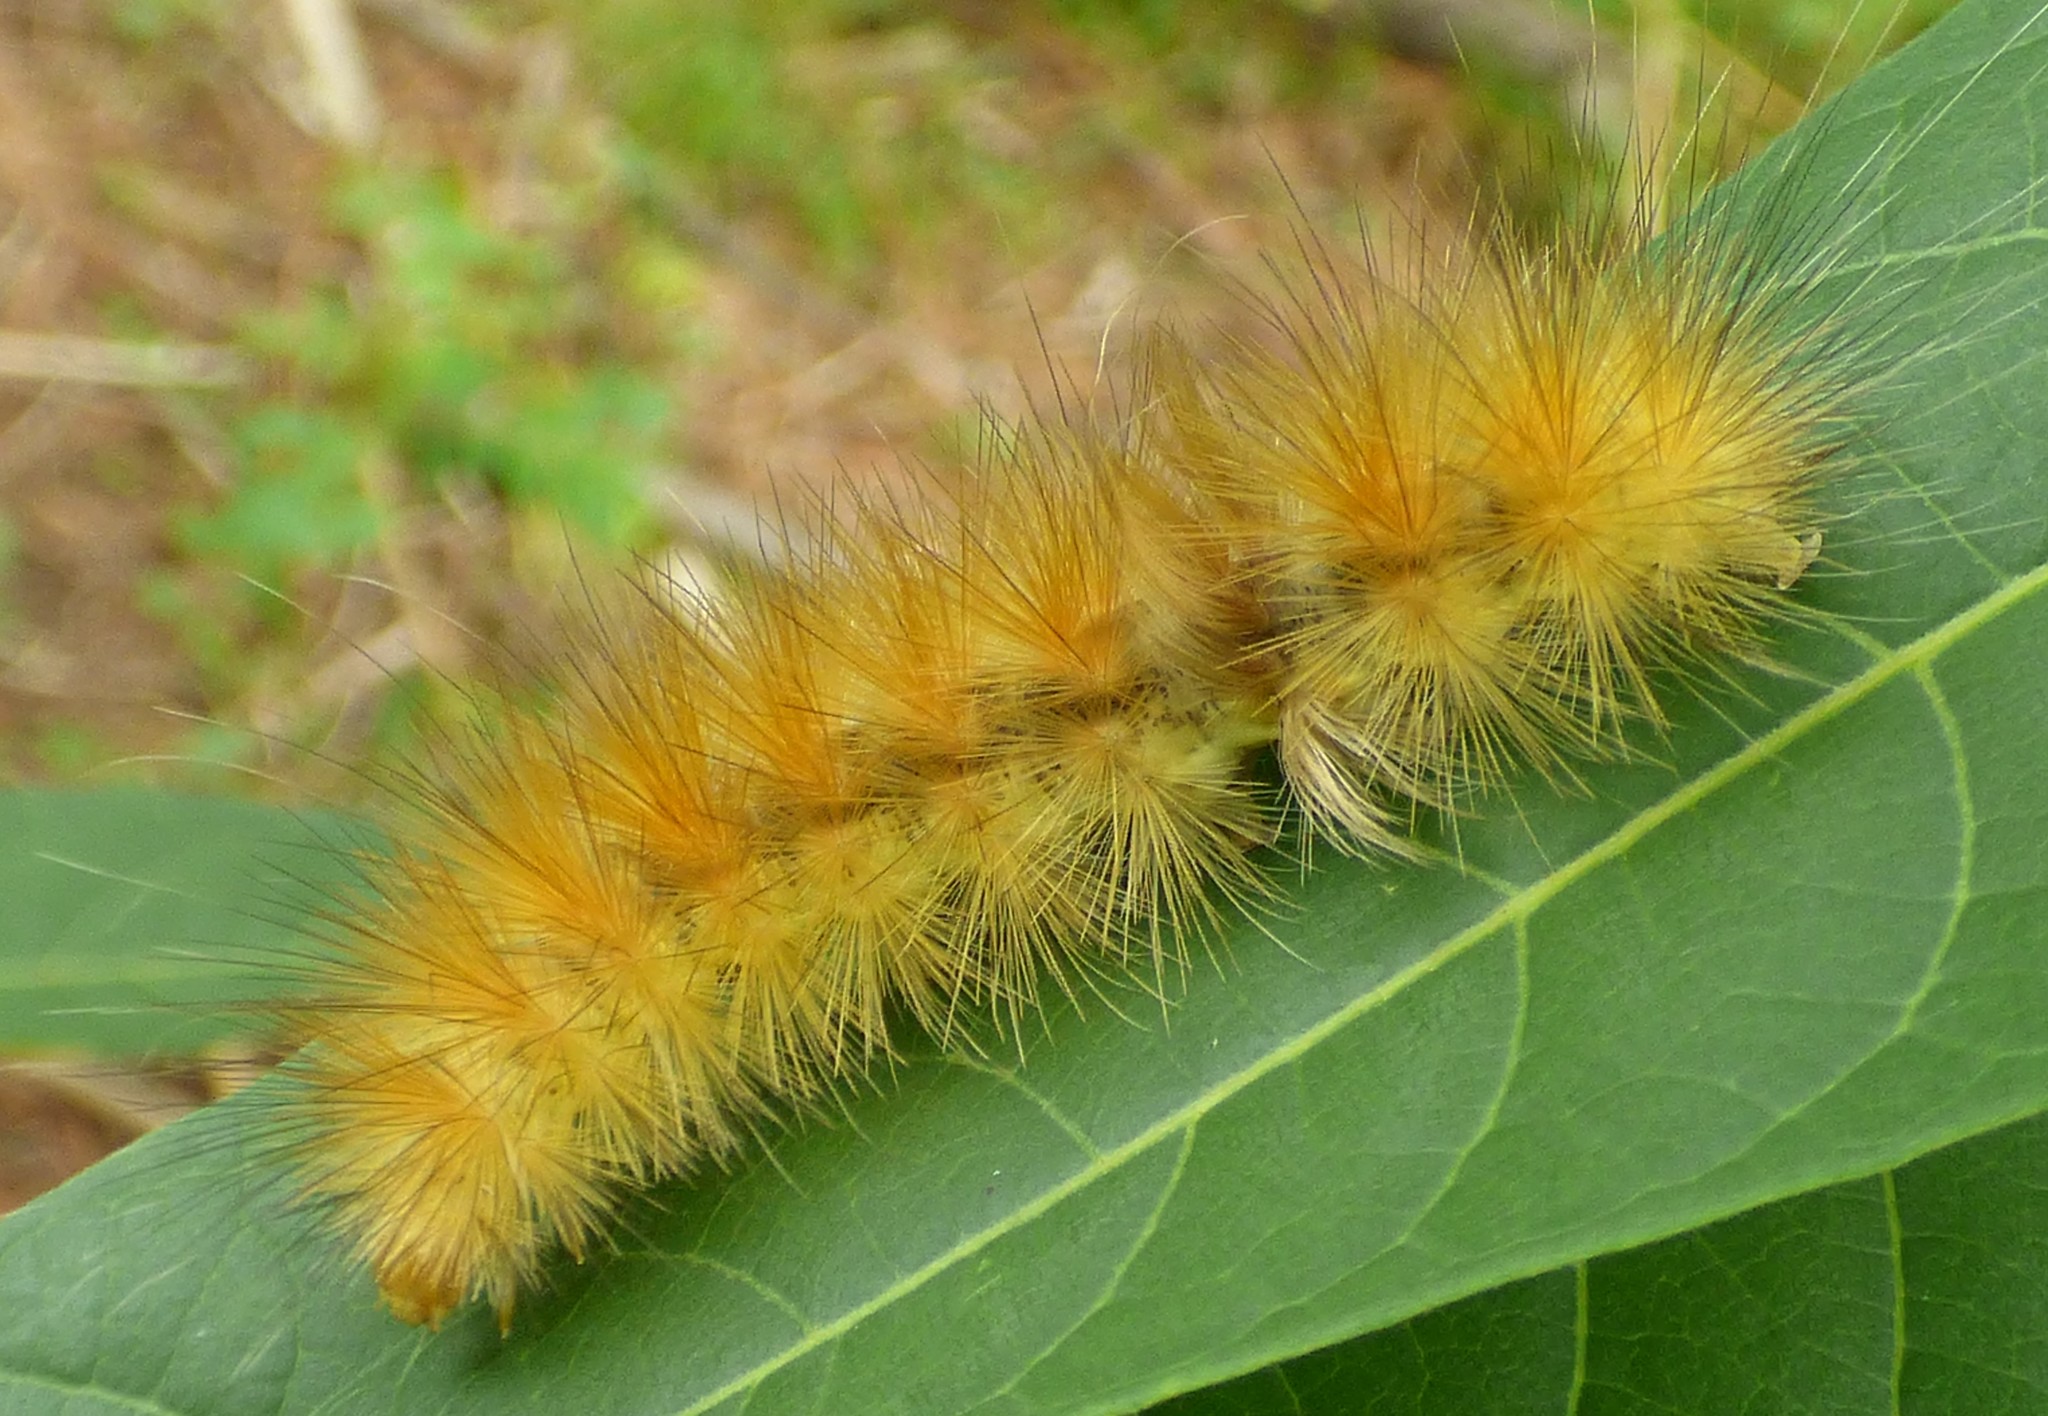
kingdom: Animalia
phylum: Arthropoda
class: Insecta
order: Lepidoptera
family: Erebidae
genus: Spilosoma
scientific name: Spilosoma virginica
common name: Virginia tiger moth
